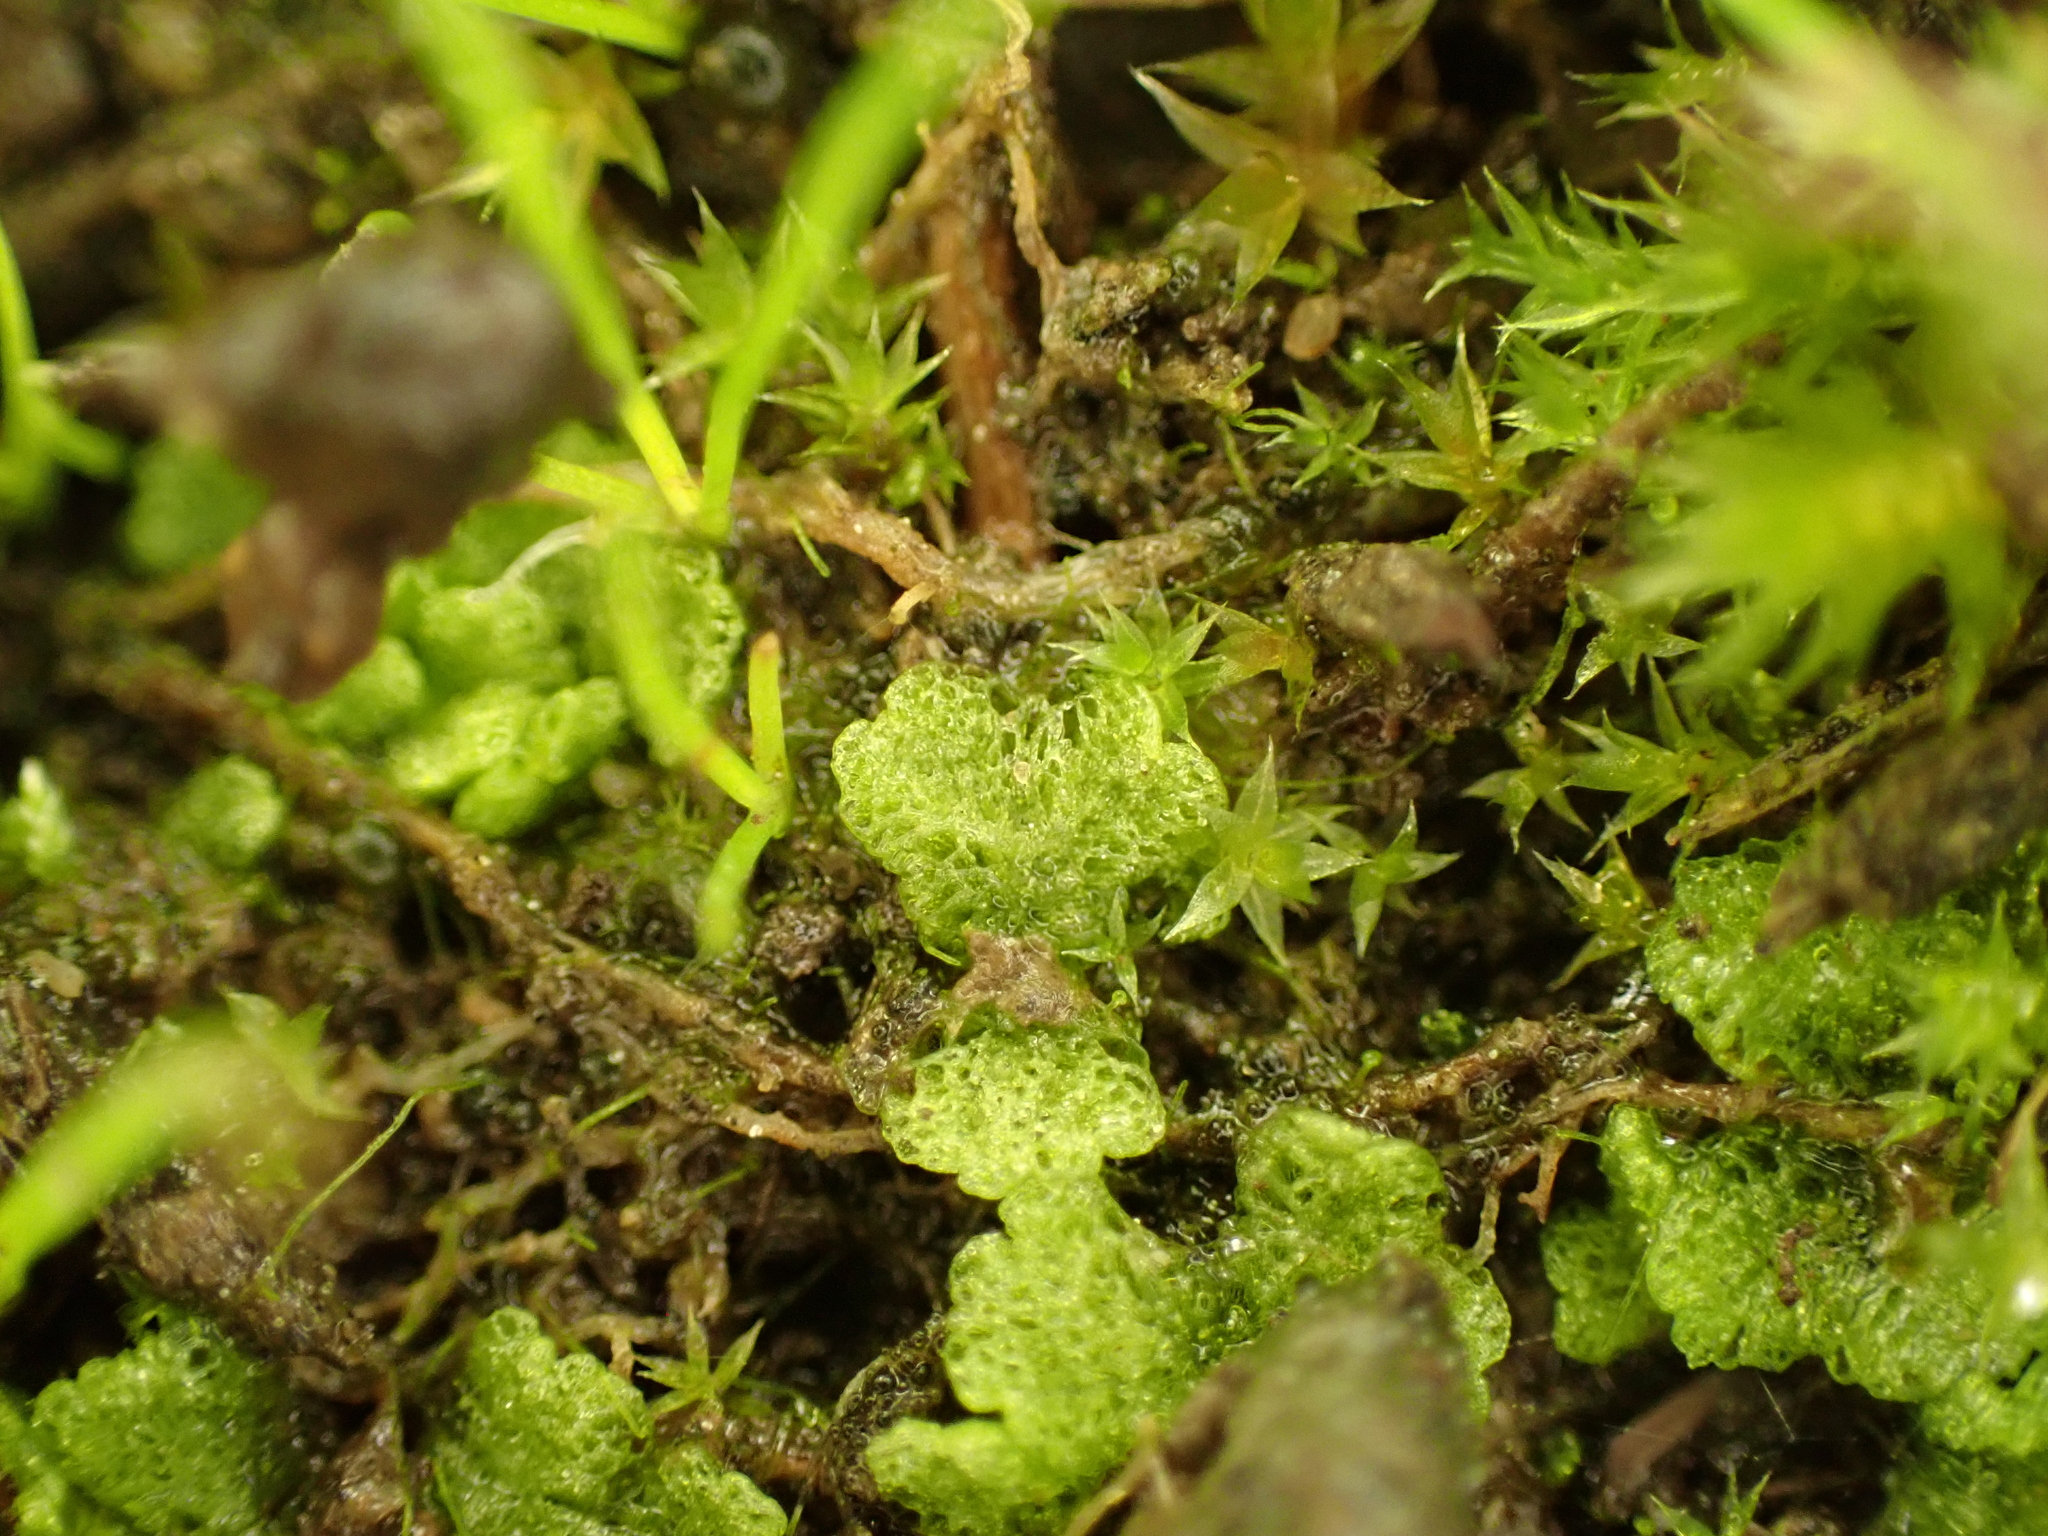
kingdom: Plantae
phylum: Marchantiophyta
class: Marchantiopsida
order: Marchantiales
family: Ricciaceae
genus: Riccia
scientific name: Riccia cavernosa
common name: Cavernous crystalwort
